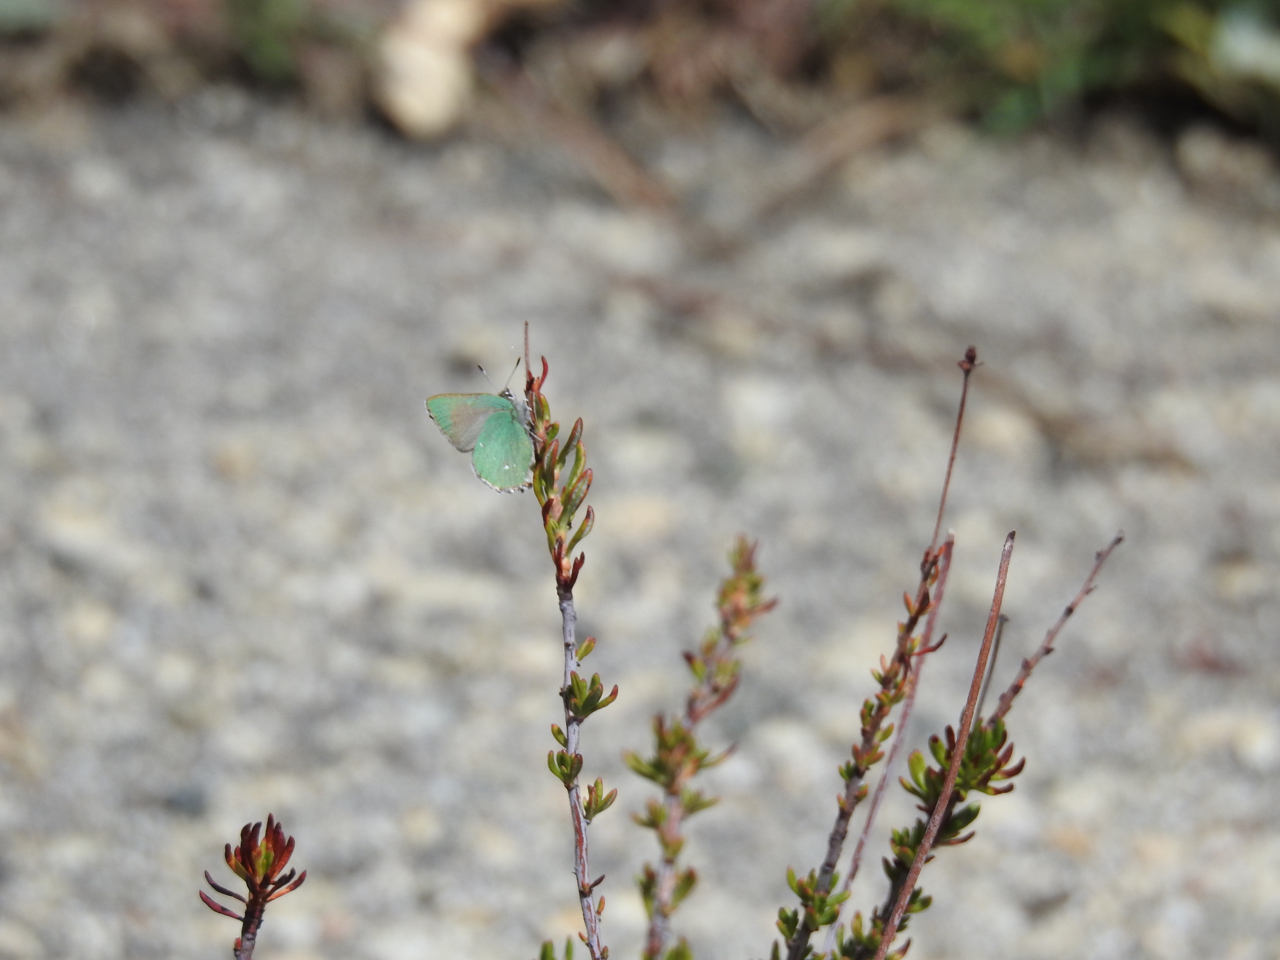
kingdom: Animalia
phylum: Arthropoda
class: Insecta
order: Lepidoptera
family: Lycaenidae
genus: Callophrys
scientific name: Callophrys dumetorum
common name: Bramble hairstreak
